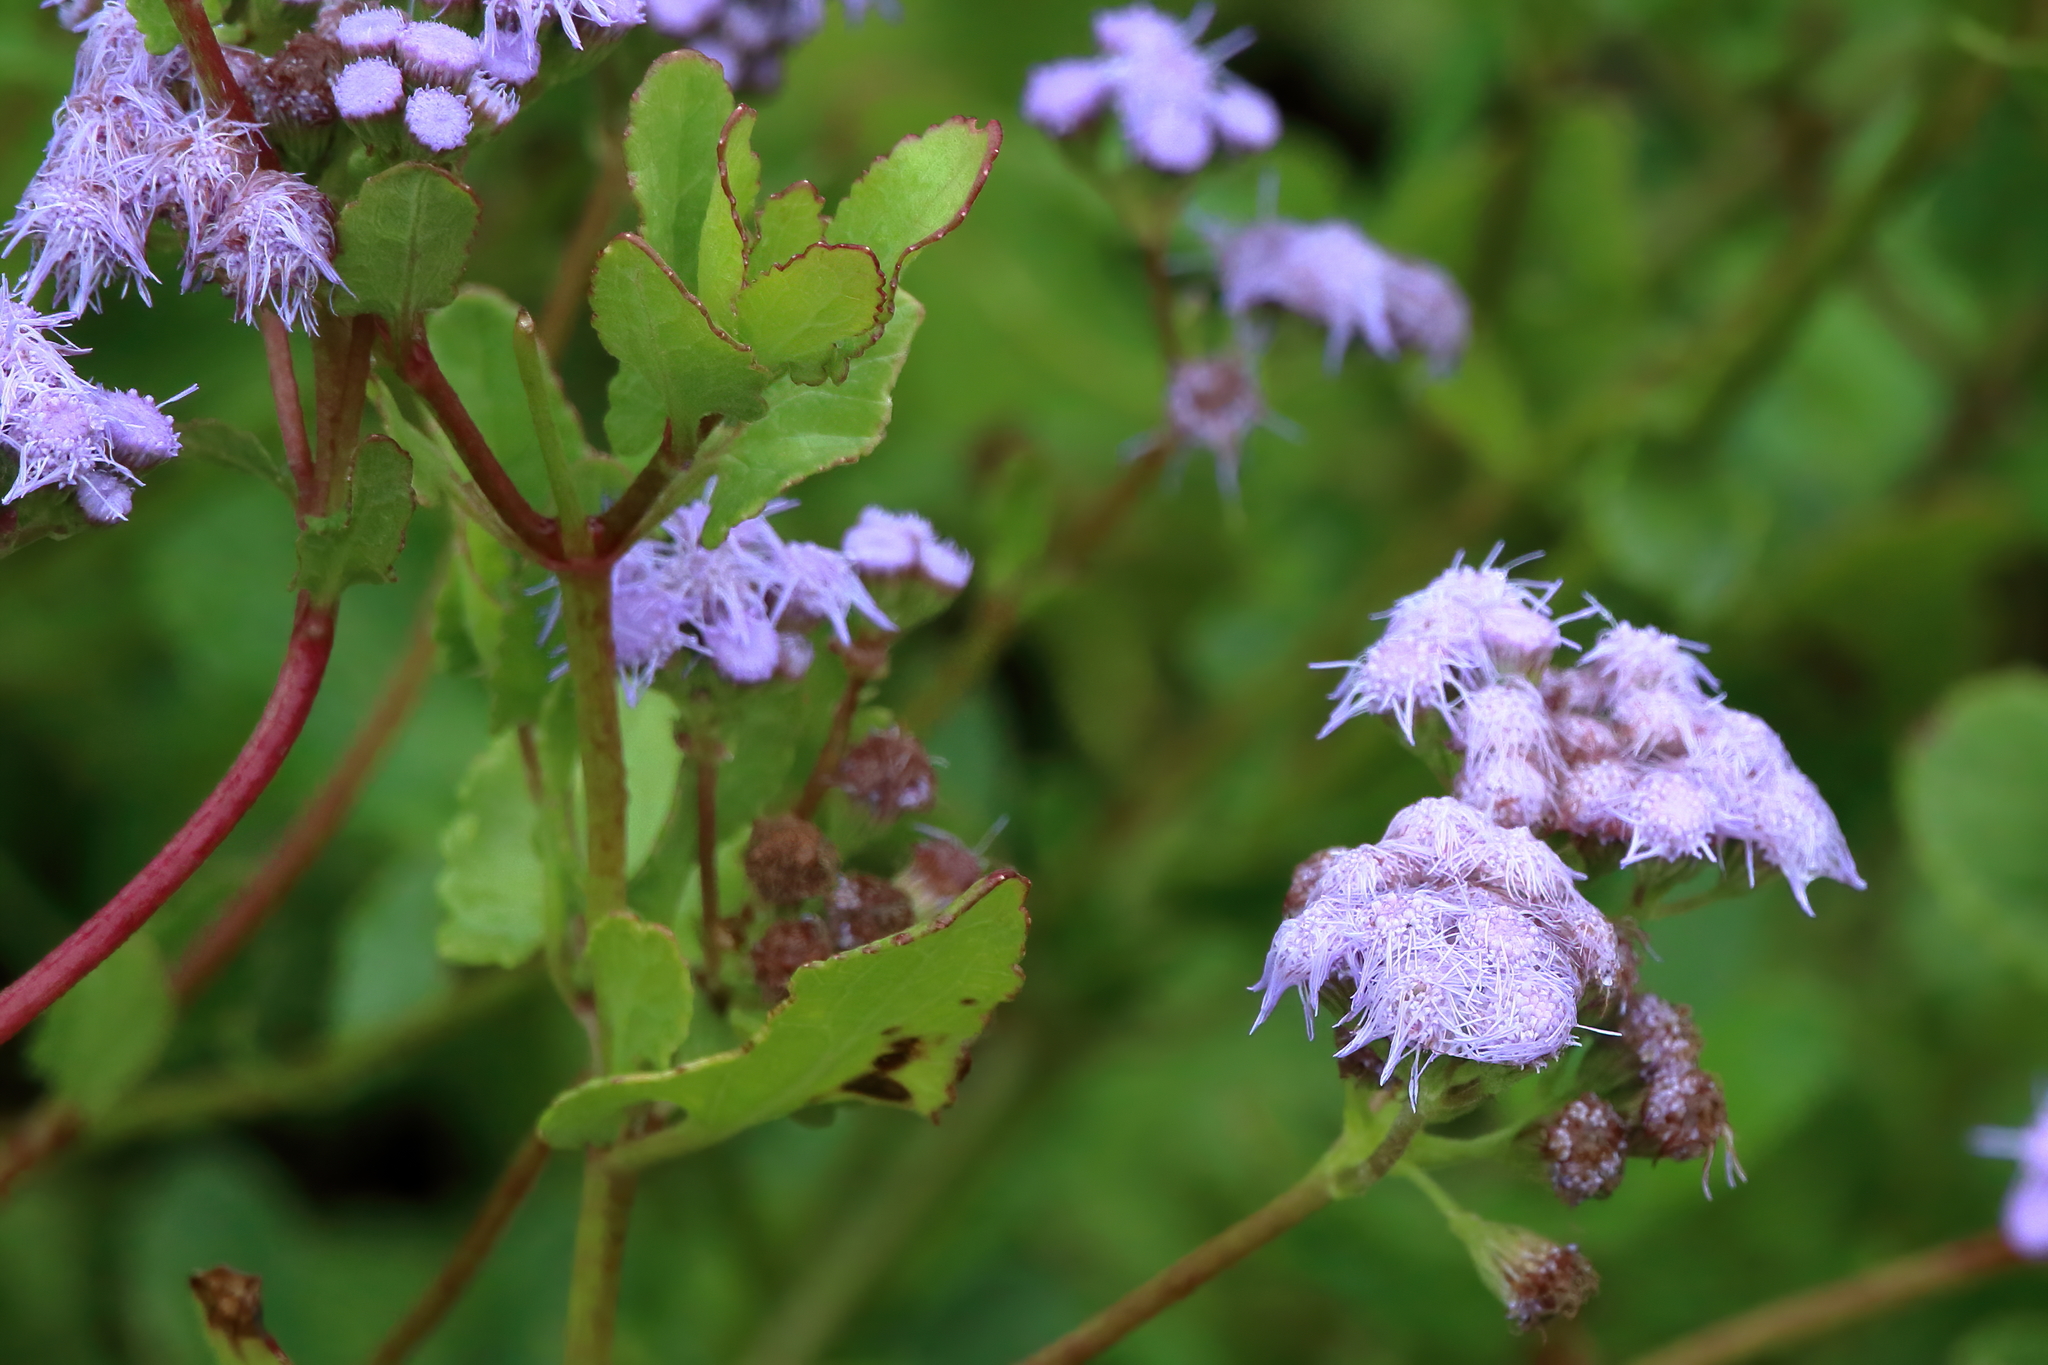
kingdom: Plantae
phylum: Tracheophyta
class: Magnoliopsida
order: Asterales
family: Asteraceae
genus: Conoclinium
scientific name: Conoclinium betonicifolium
